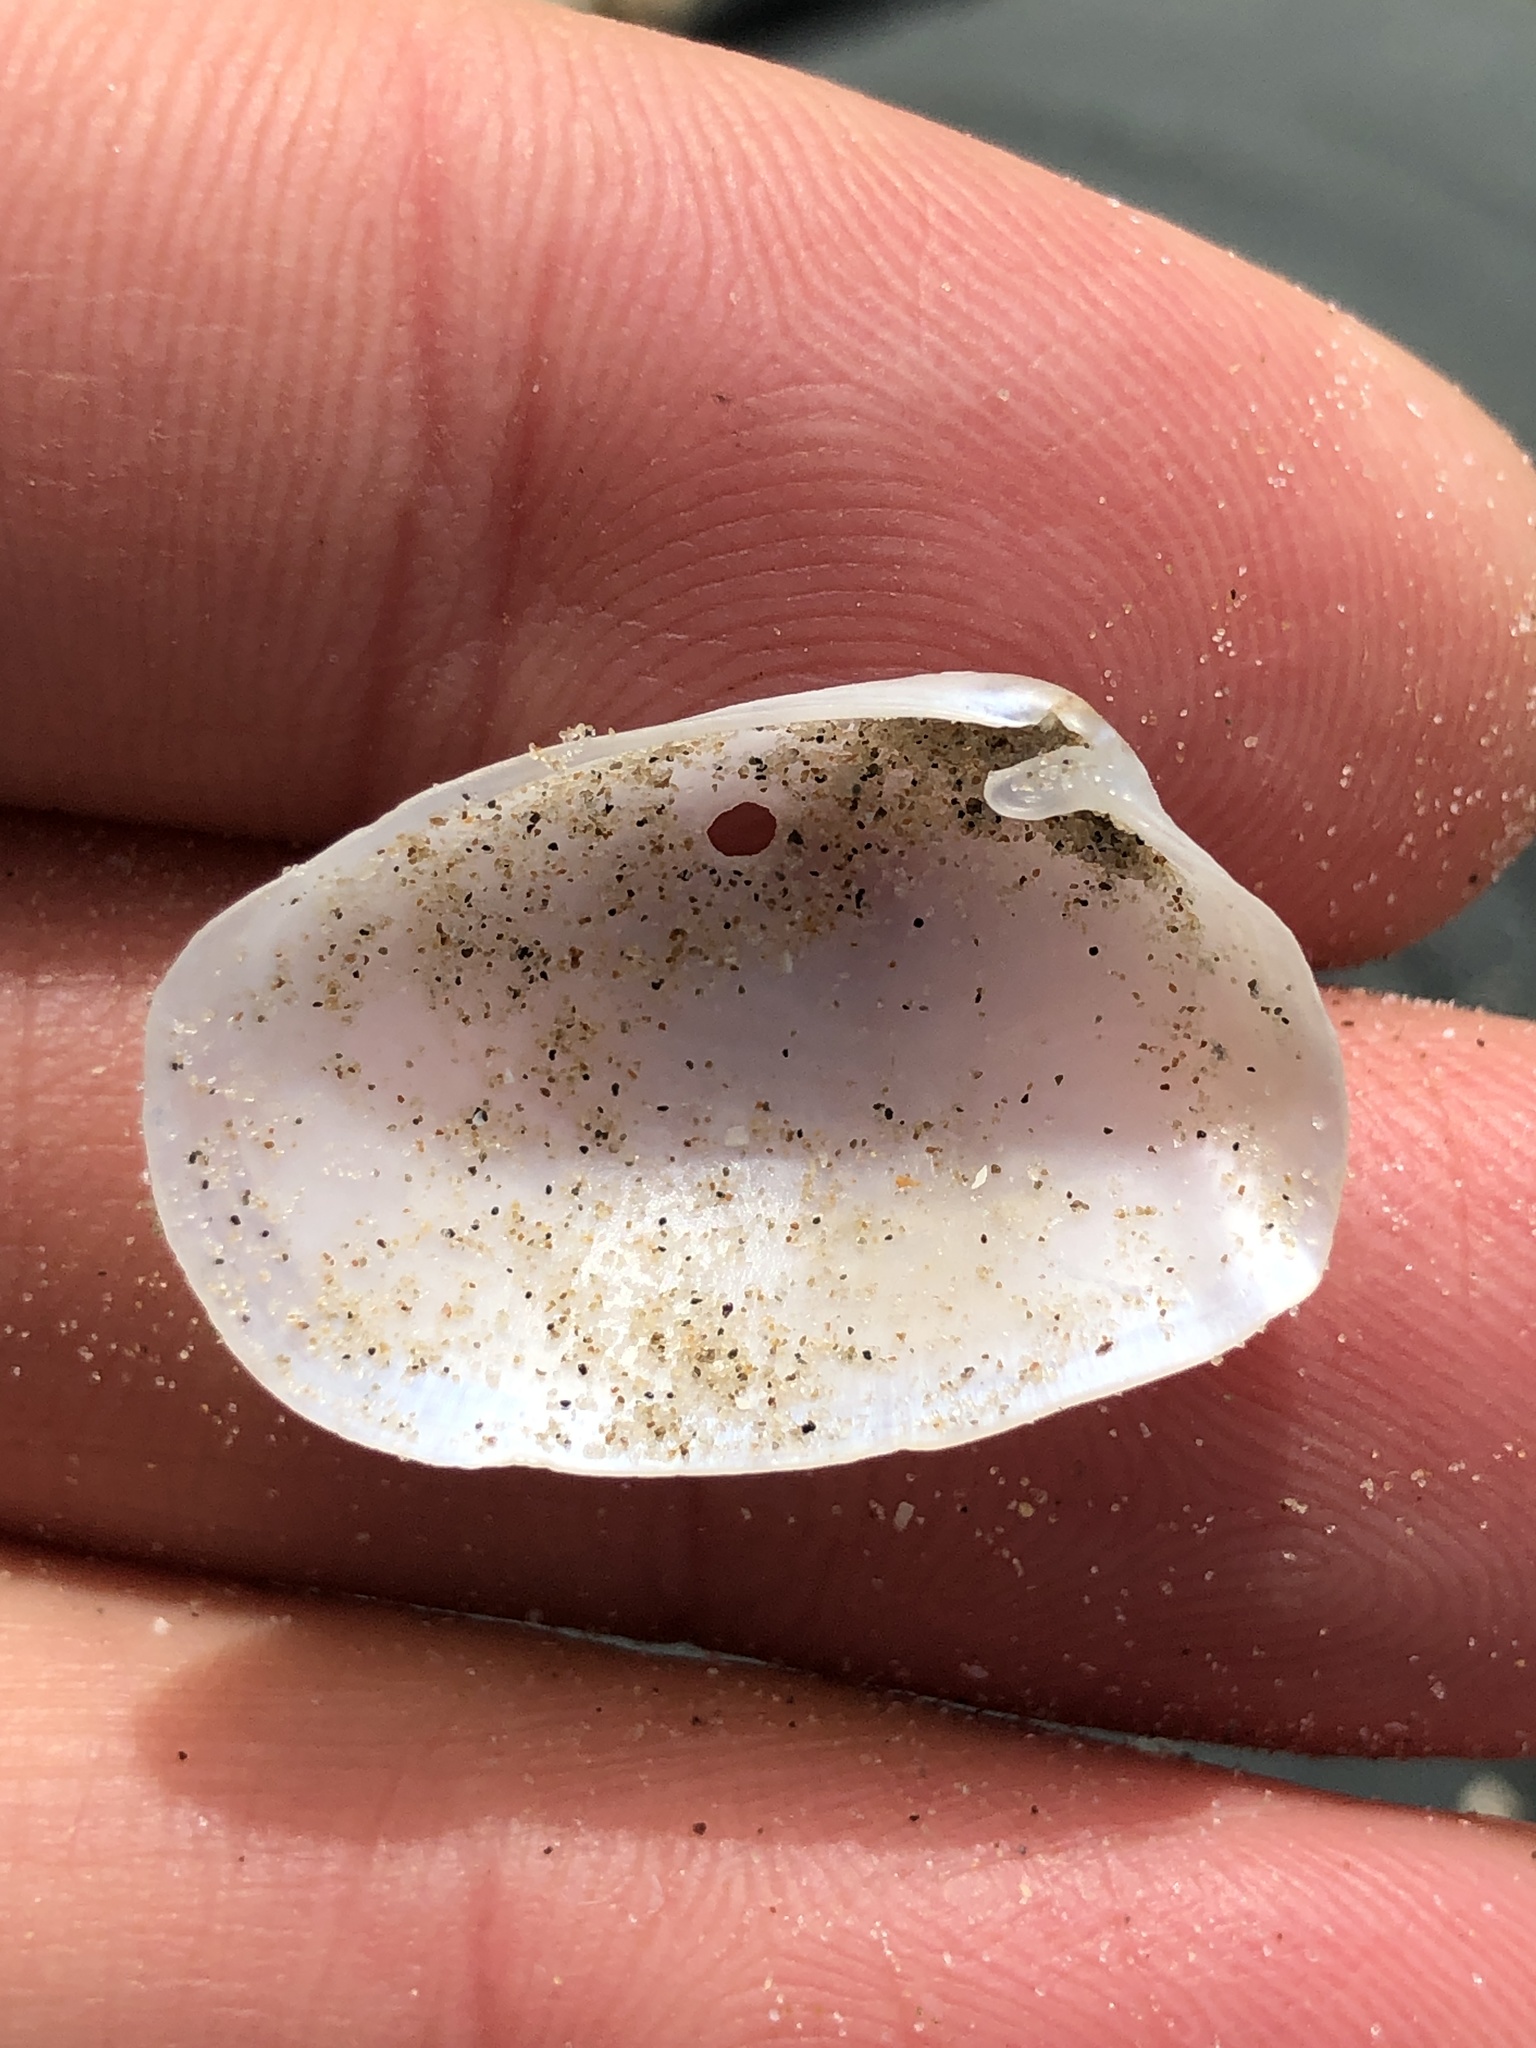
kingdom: Animalia
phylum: Mollusca
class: Bivalvia
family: Periplomatidae
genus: Periploma
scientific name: Periploma inequale
